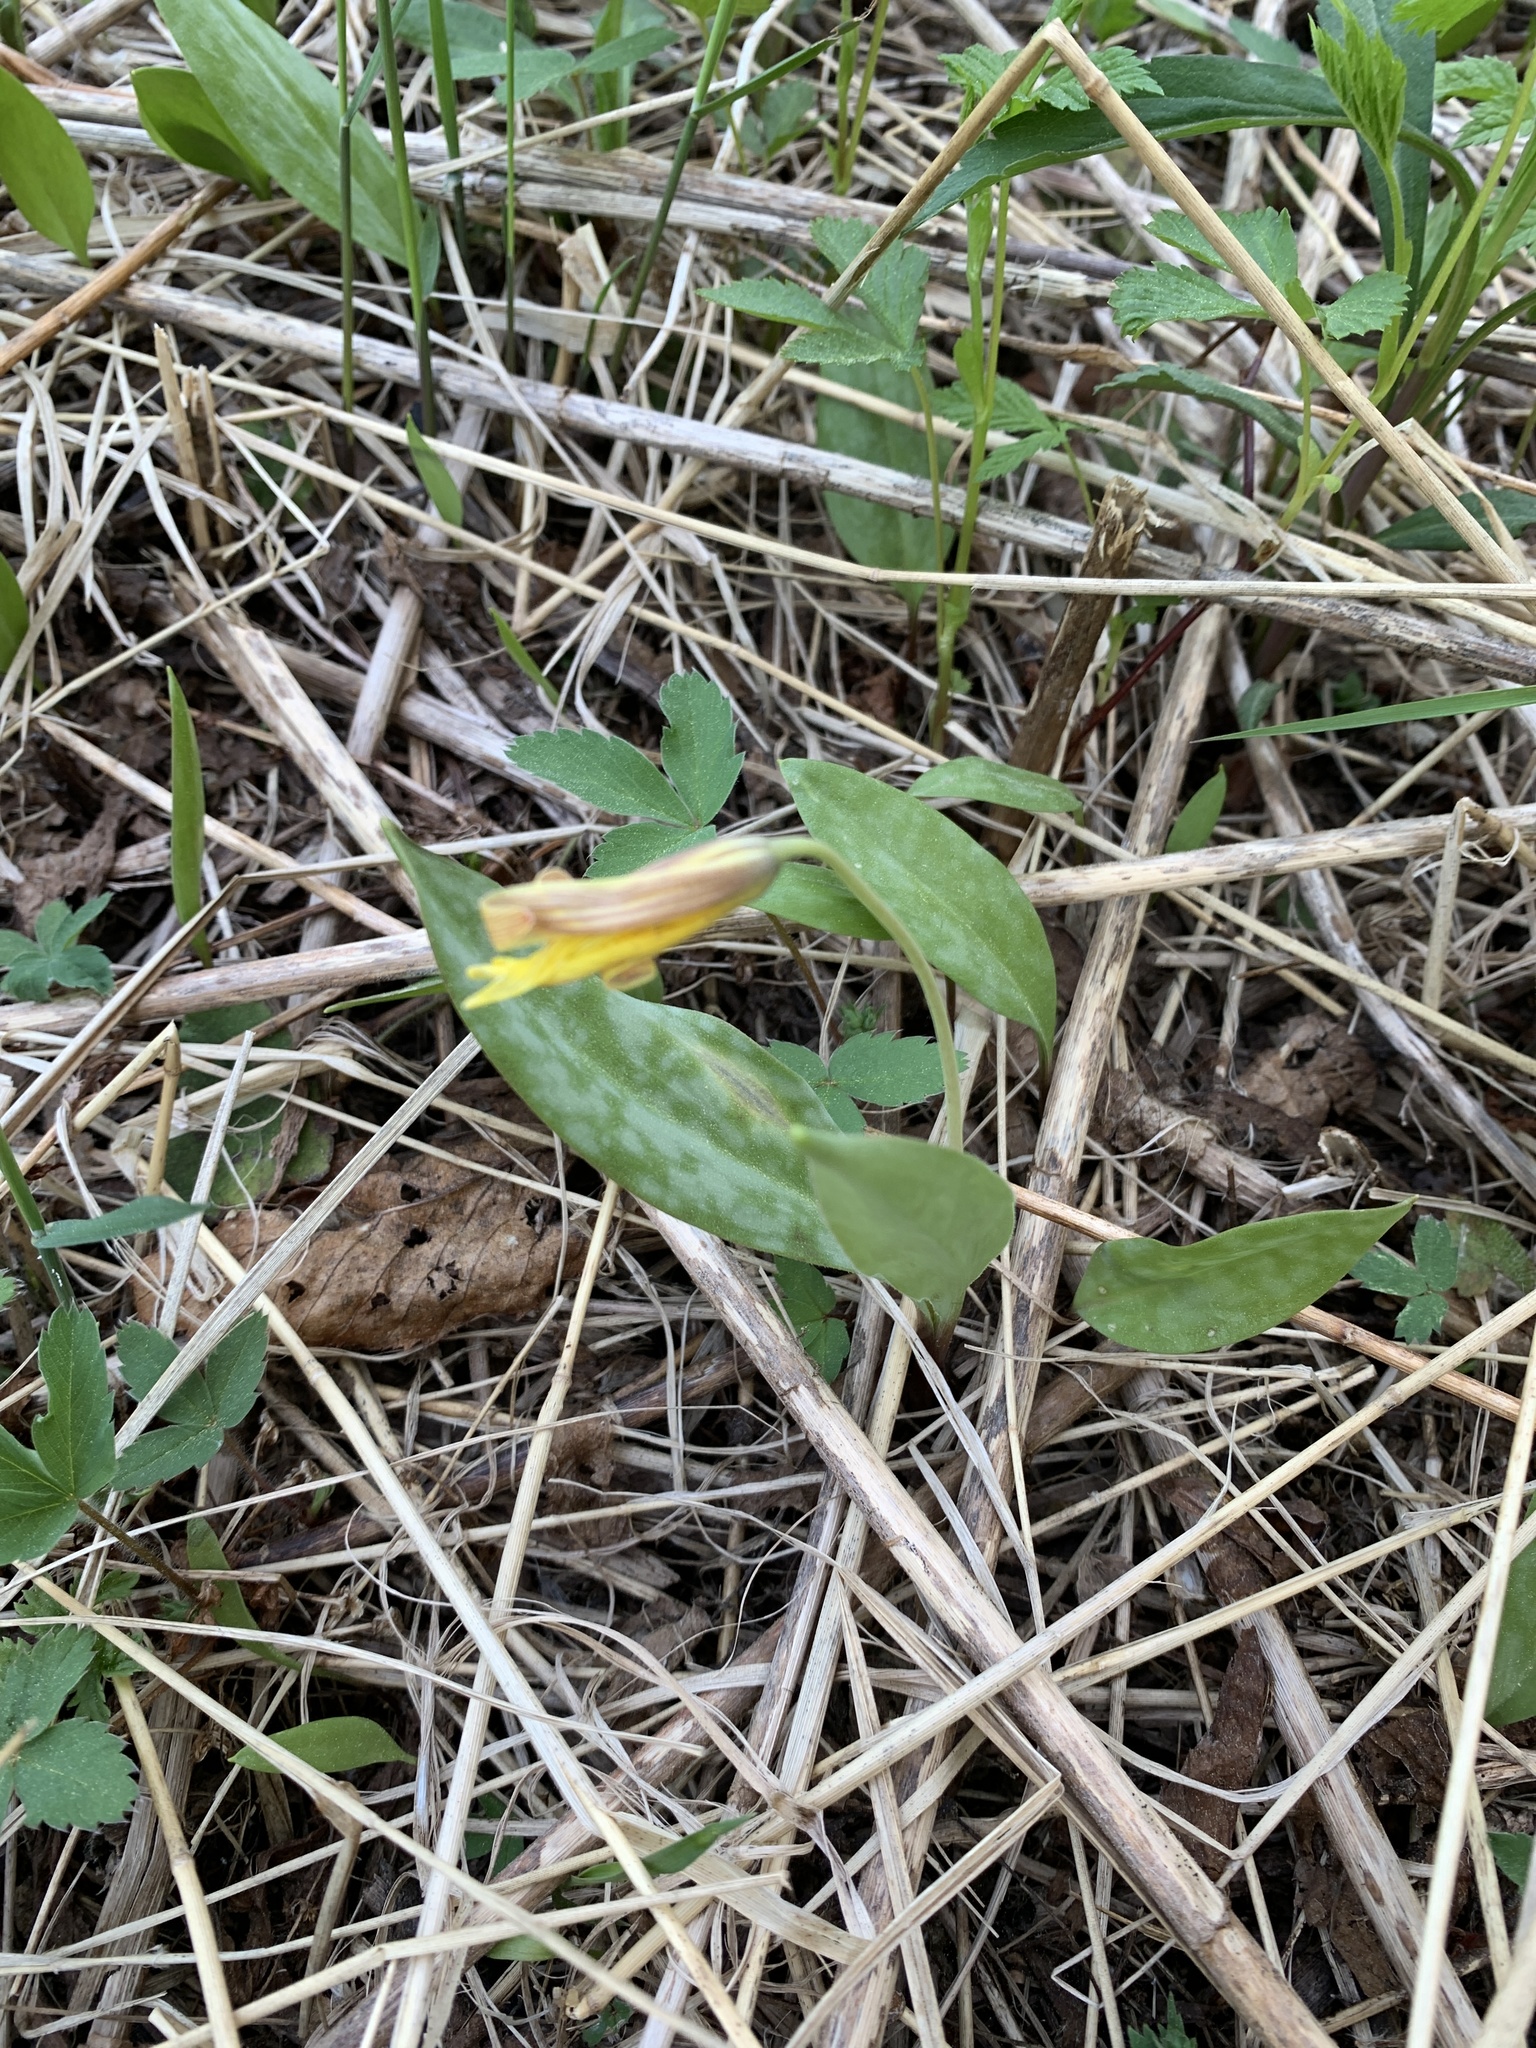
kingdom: Plantae
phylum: Tracheophyta
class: Liliopsida
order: Liliales
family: Liliaceae
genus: Erythronium
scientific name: Erythronium americanum
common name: Yellow adder's-tongue
